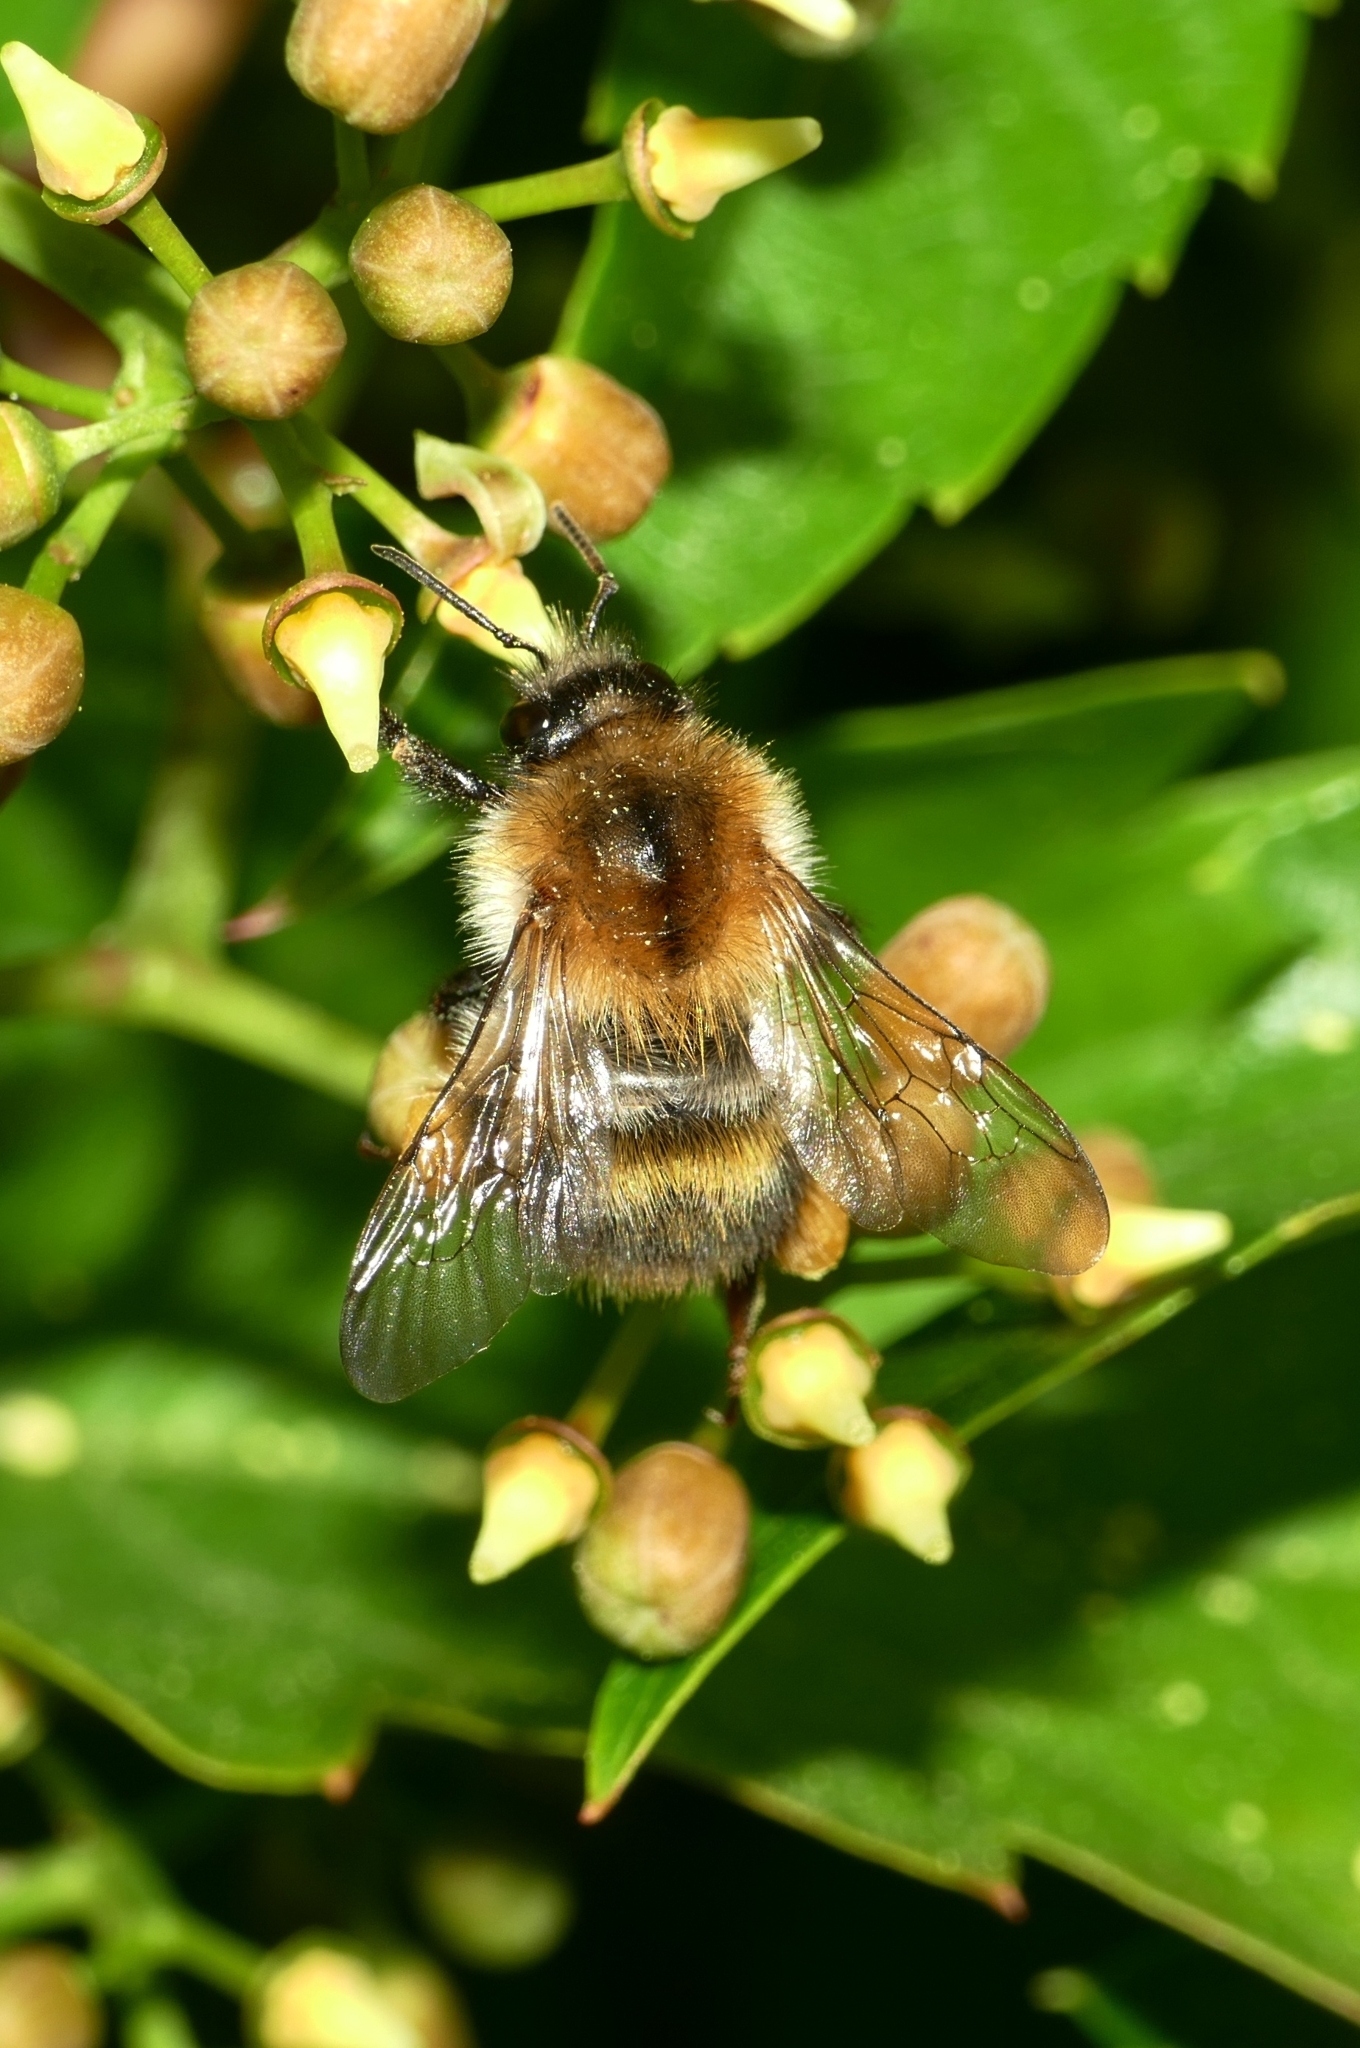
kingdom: Animalia
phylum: Arthropoda
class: Insecta
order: Hymenoptera
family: Apidae
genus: Bombus
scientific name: Bombus pascuorum
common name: Common carder bee
